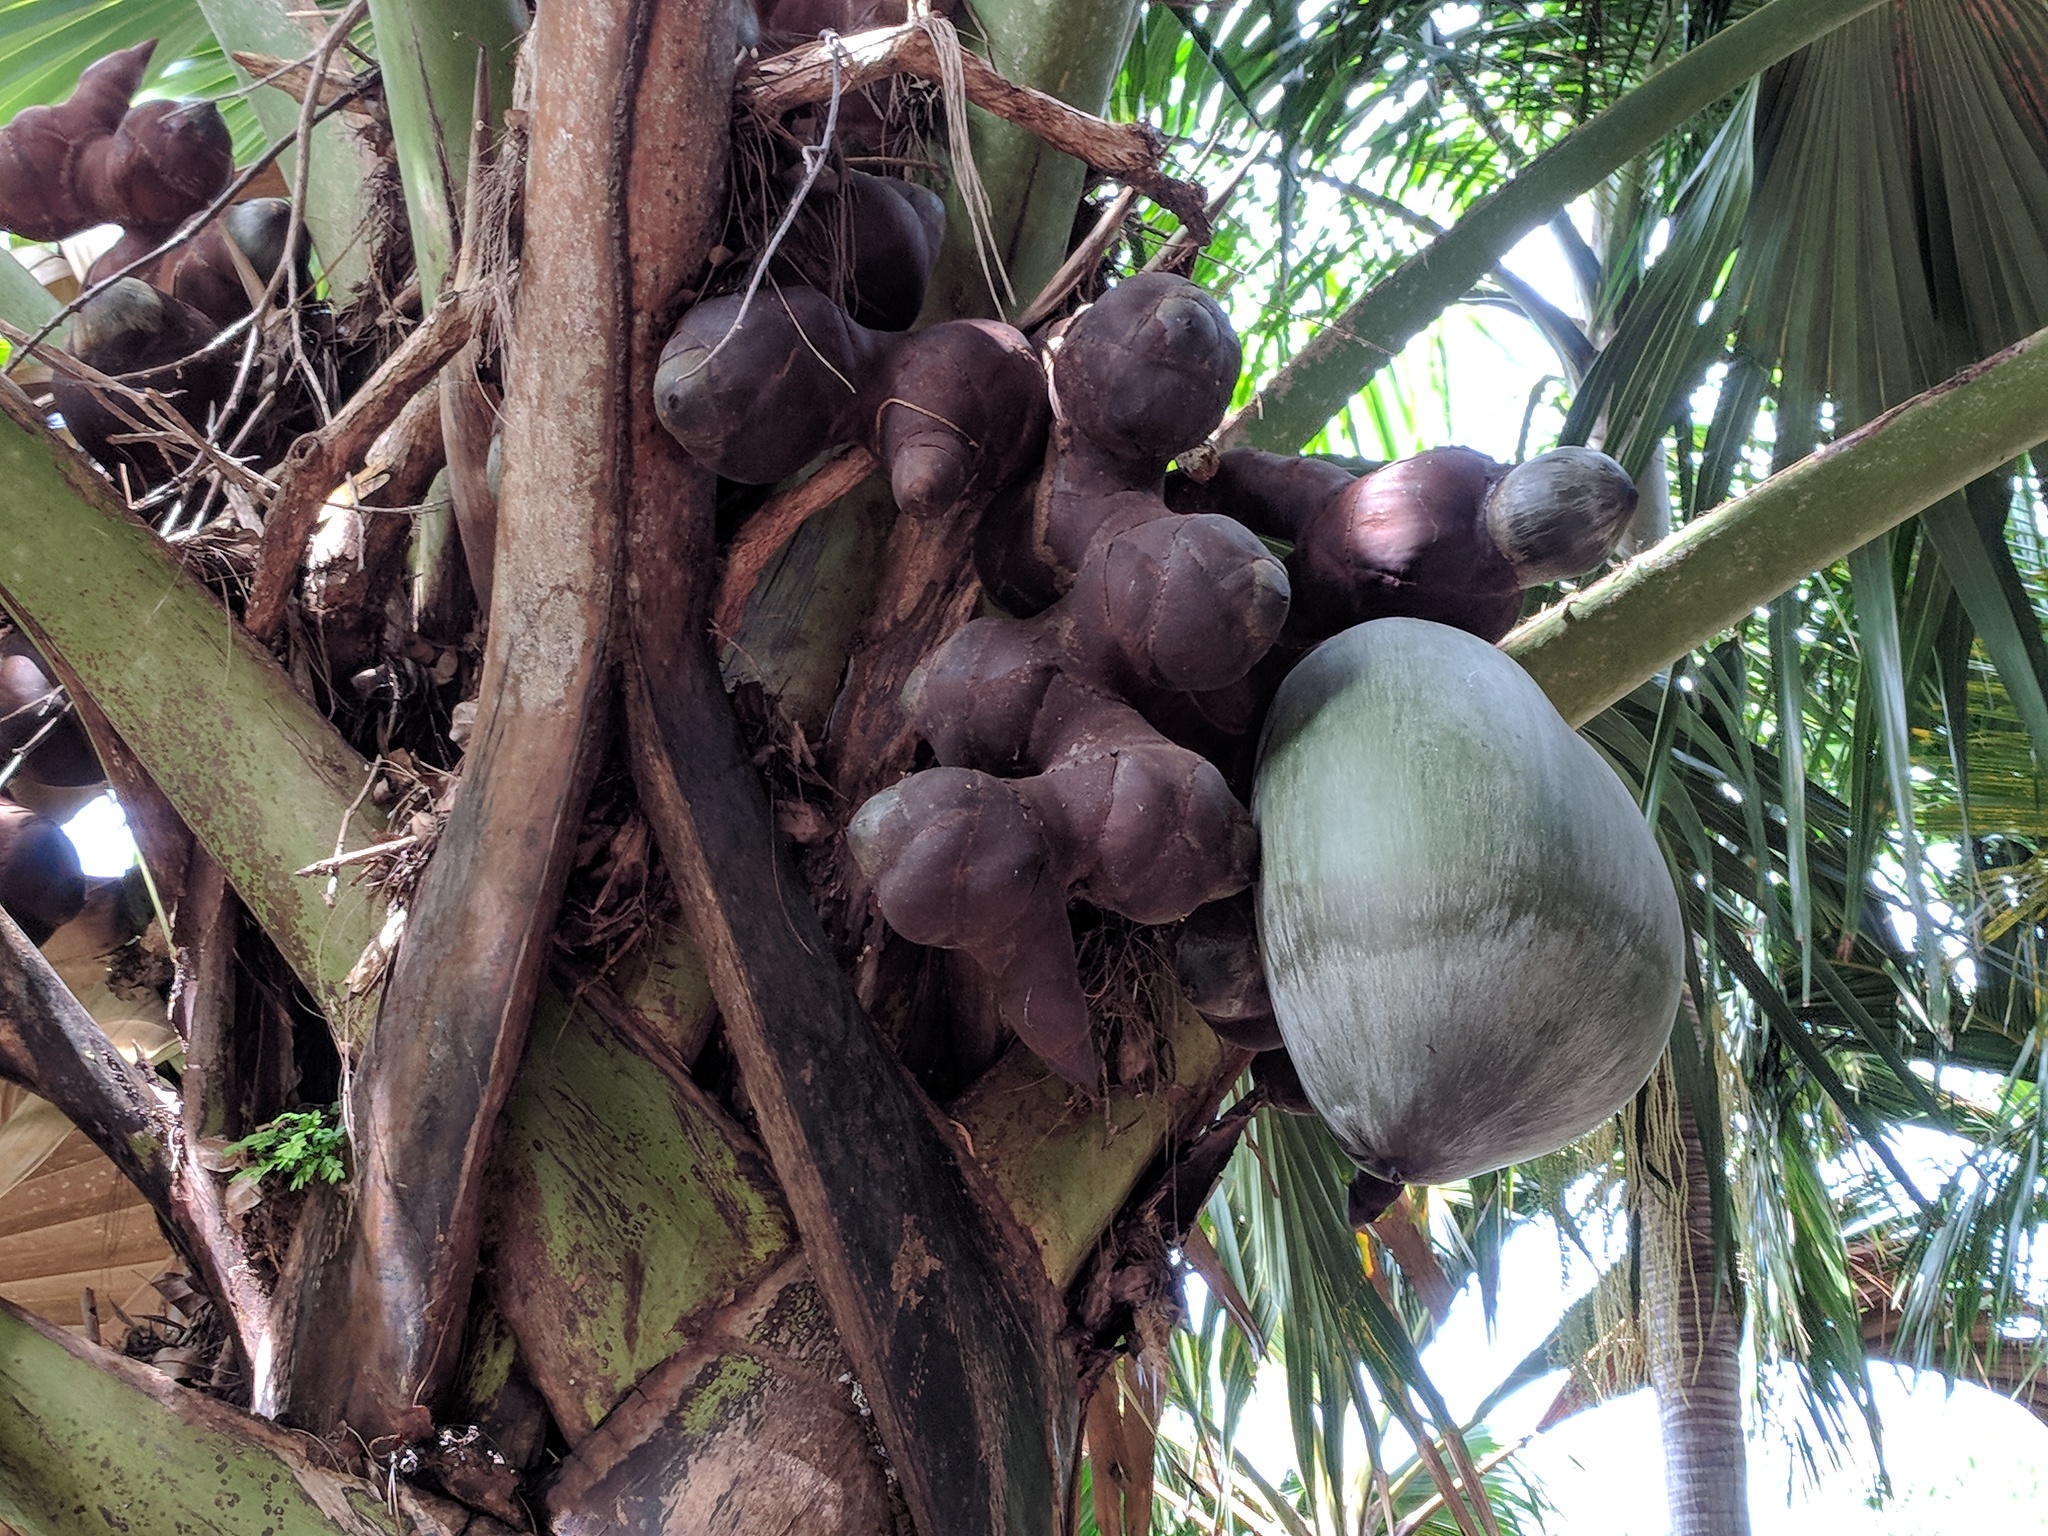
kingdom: Plantae
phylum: Tracheophyta
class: Liliopsida
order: Arecales
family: Arecaceae
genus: Lodoicea
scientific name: Lodoicea maldivica
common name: Double coconut palm
